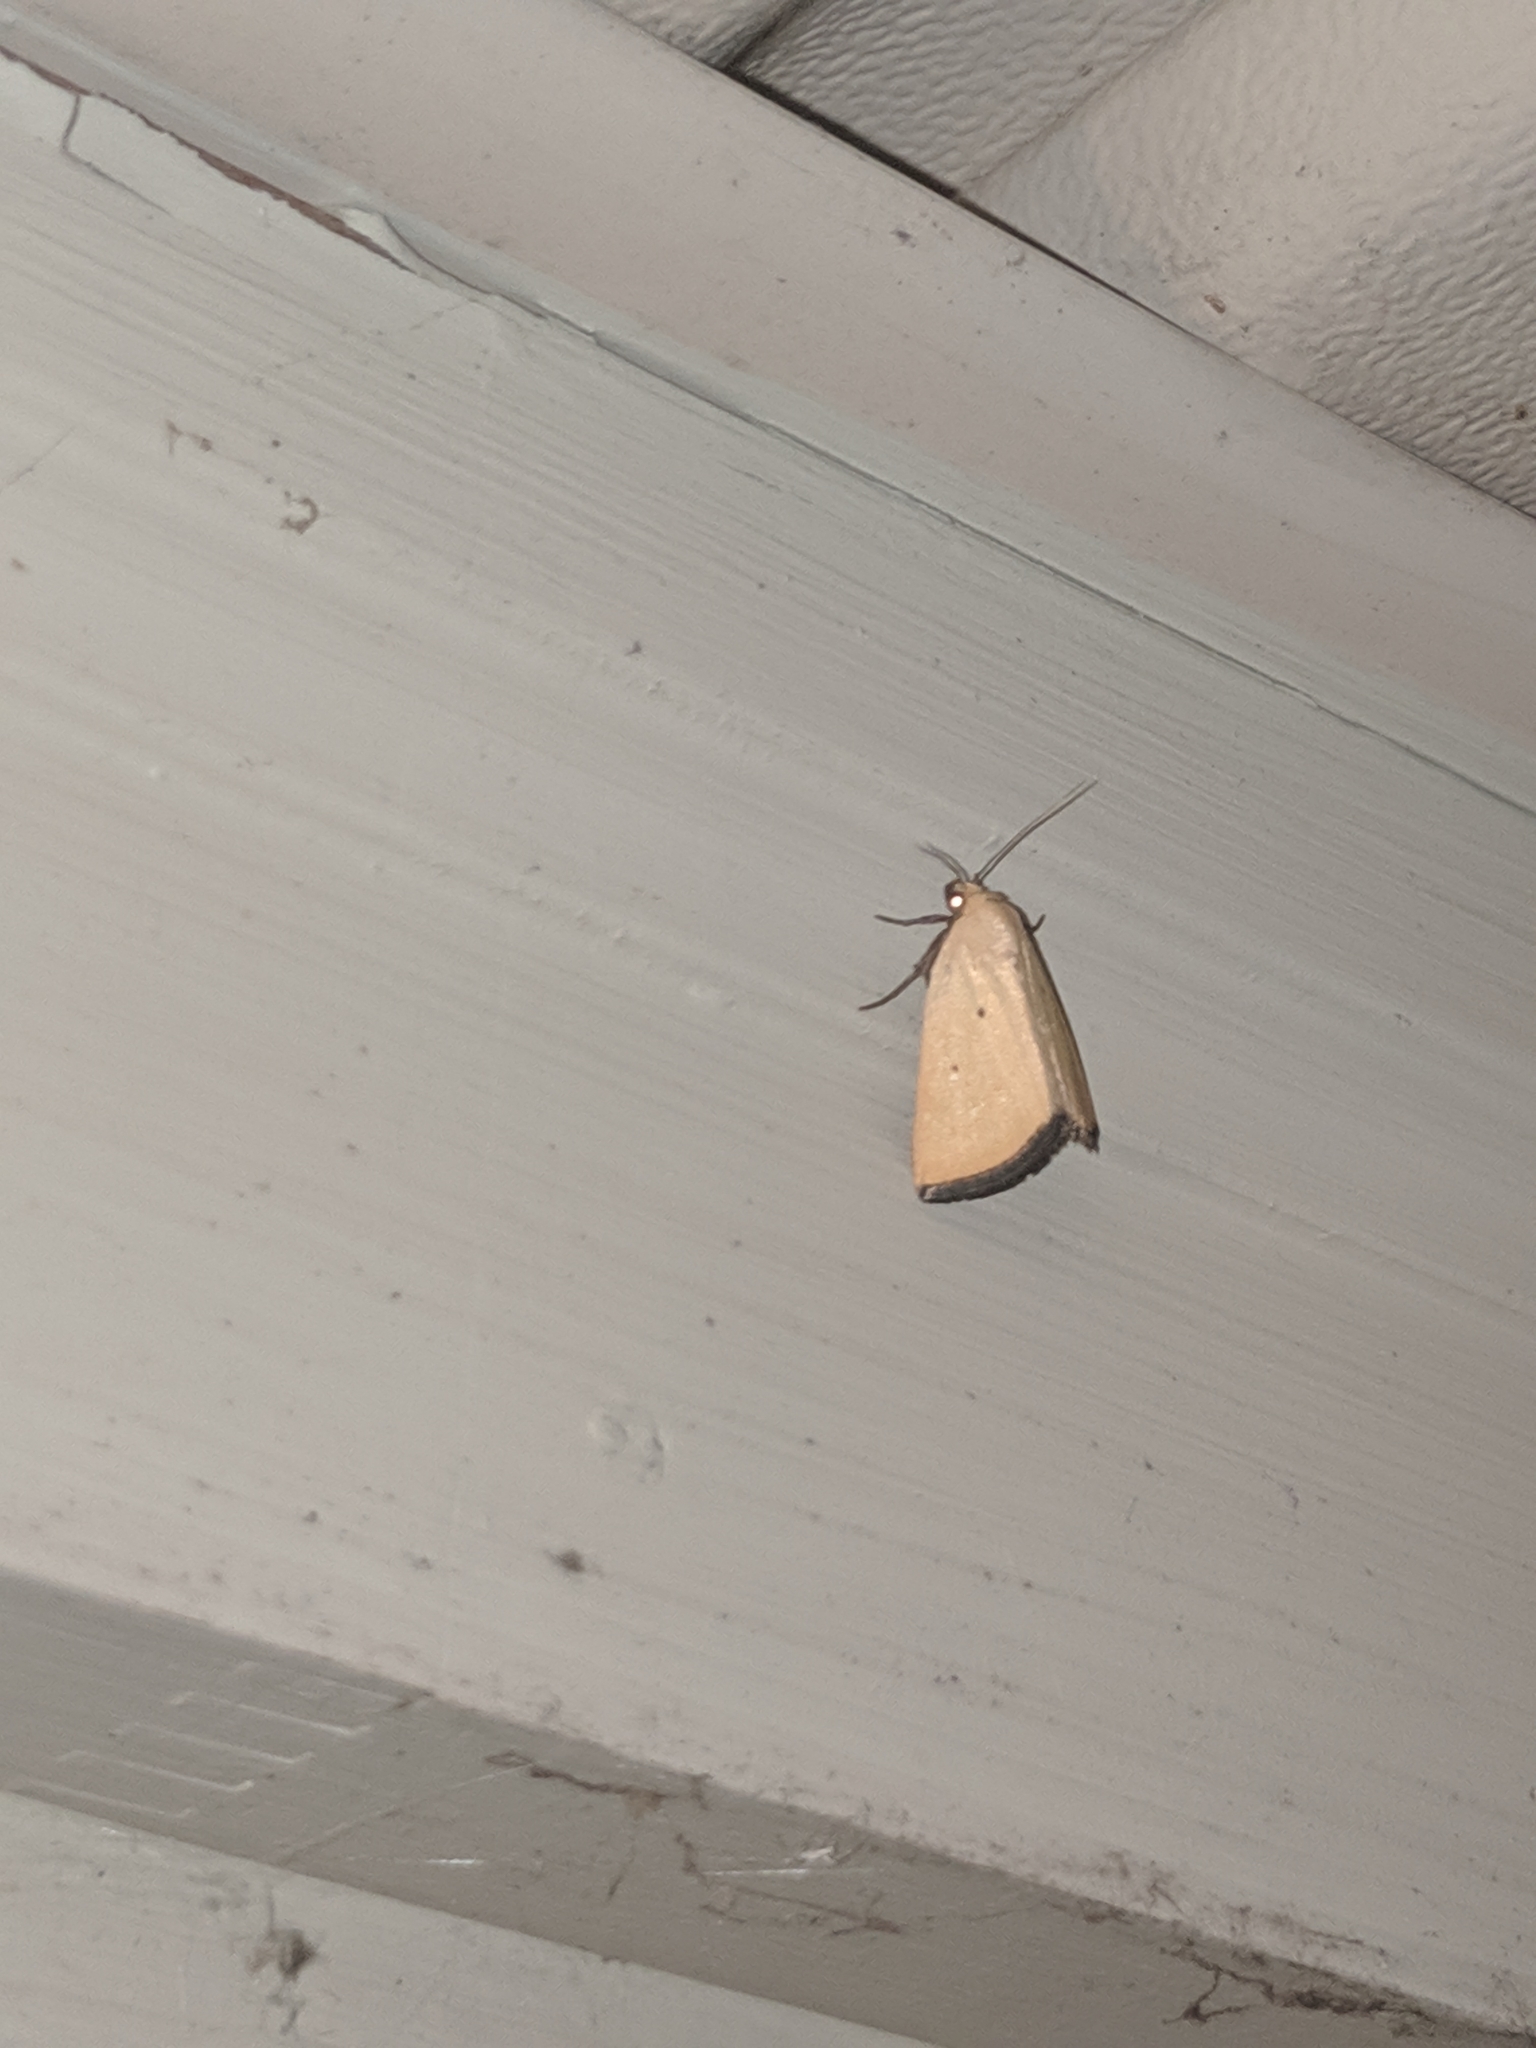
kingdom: Animalia
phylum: Arthropoda
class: Insecta
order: Lepidoptera
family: Noctuidae
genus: Marimatha
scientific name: Marimatha nigrofimbria
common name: Black-bordered lemon moth
